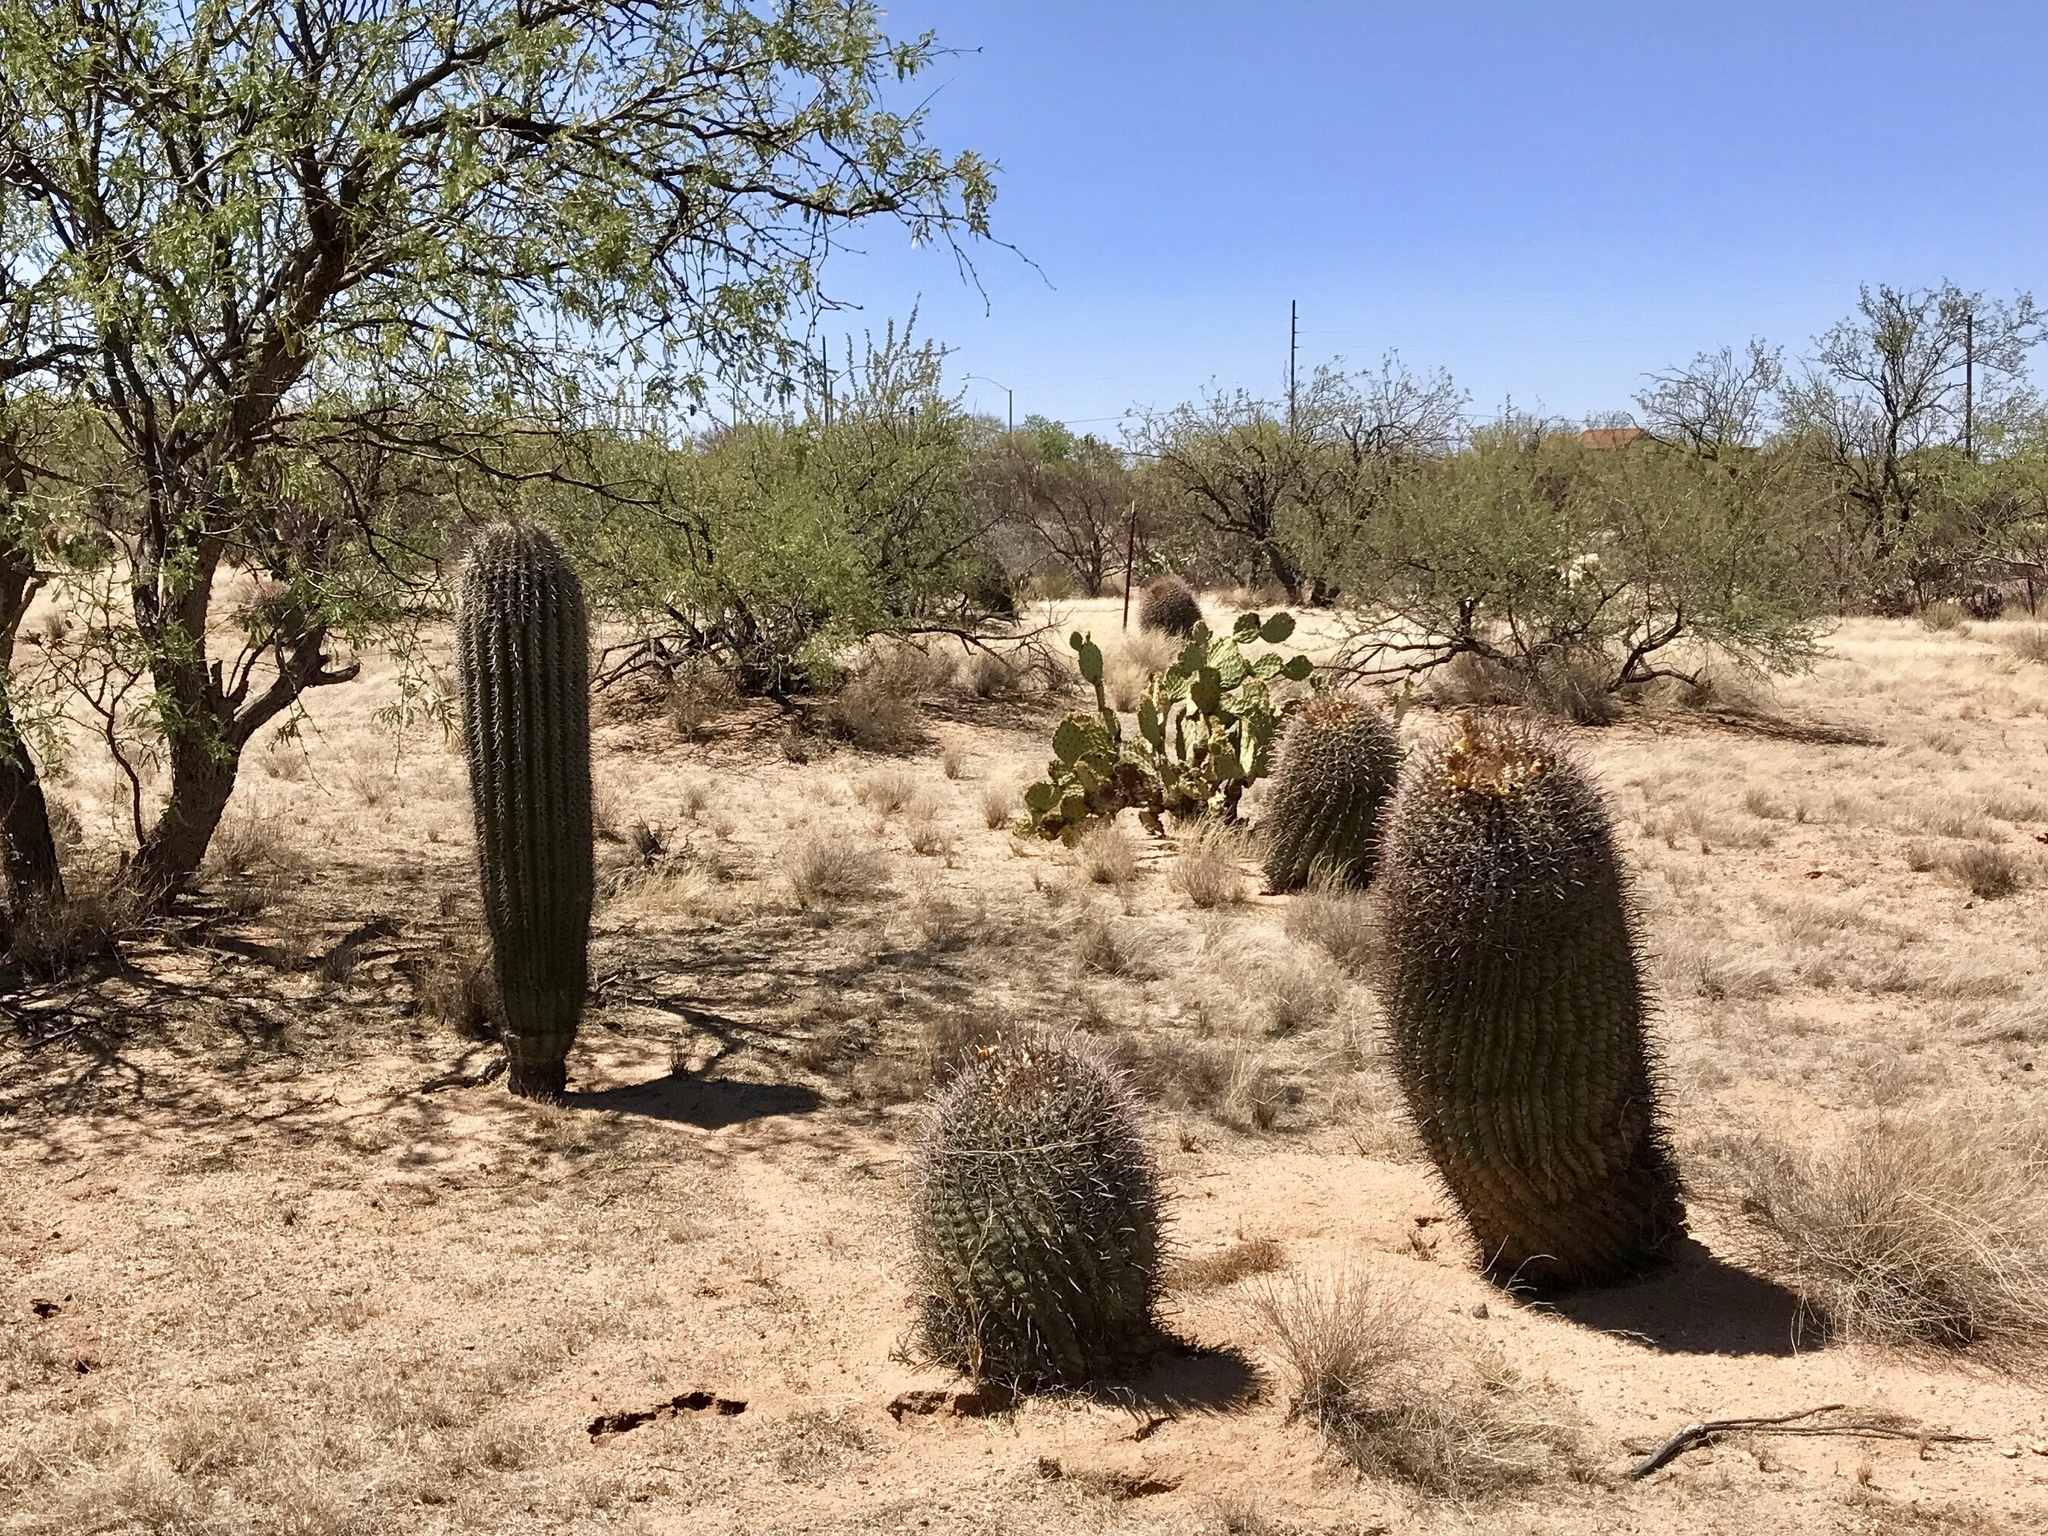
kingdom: Plantae
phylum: Tracheophyta
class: Magnoliopsida
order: Caryophyllales
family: Cactaceae
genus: Carnegiea
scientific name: Carnegiea gigantea
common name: Saguaro
